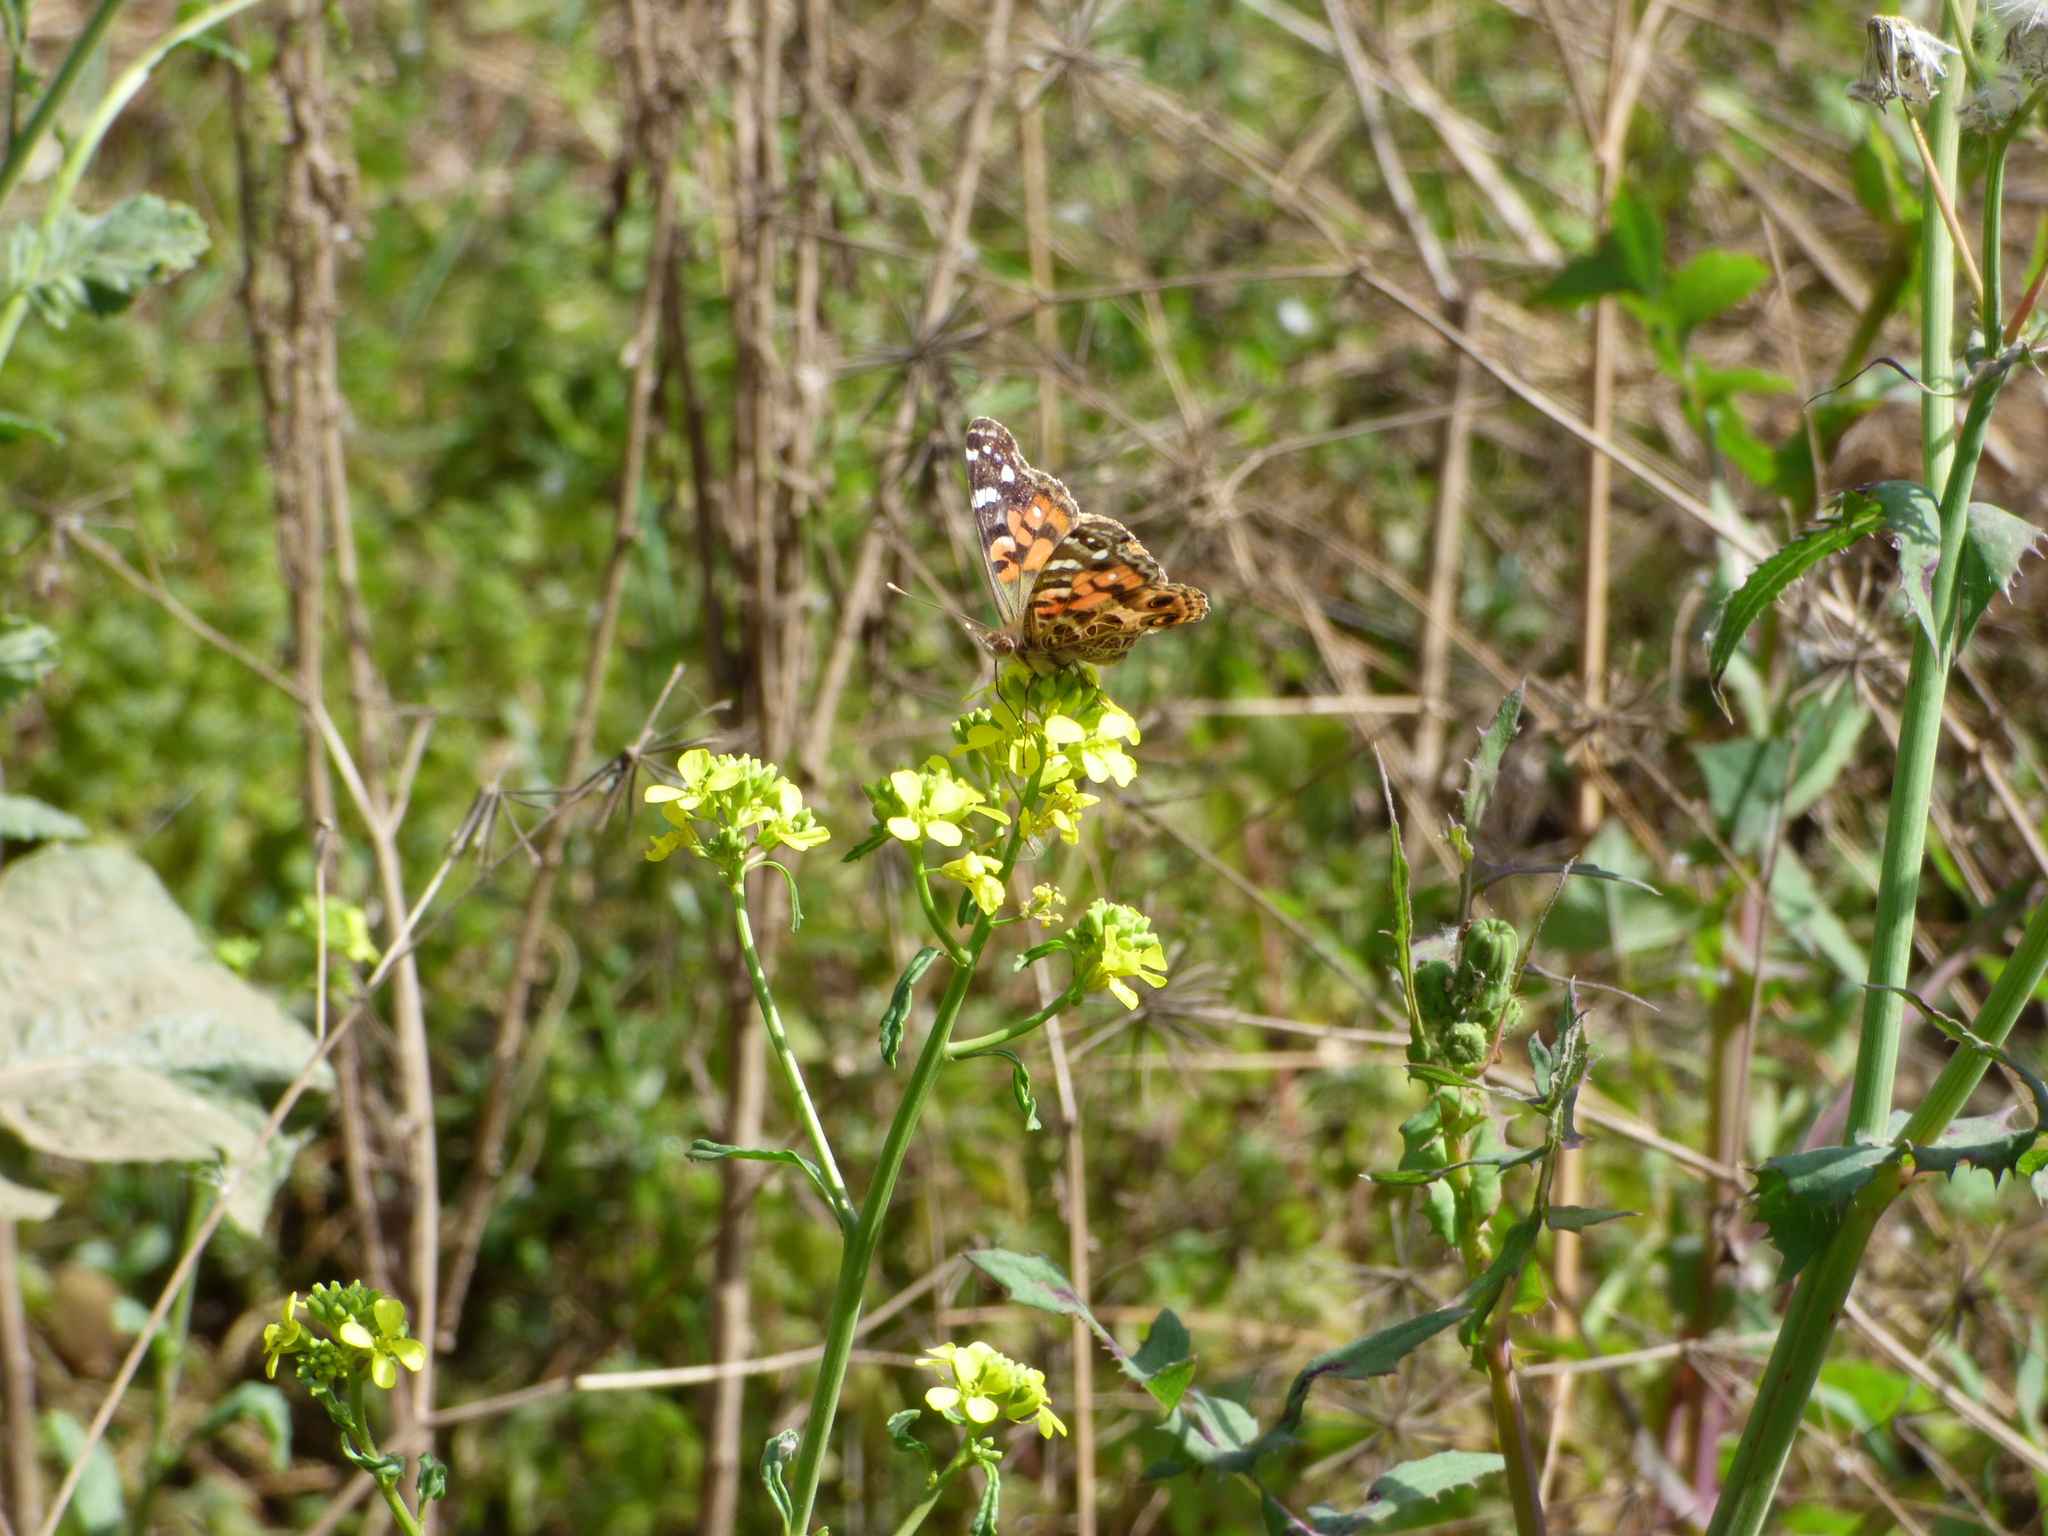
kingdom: Animalia
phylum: Arthropoda
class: Insecta
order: Lepidoptera
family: Nymphalidae
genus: Vanessa
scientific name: Vanessa braziliensis
